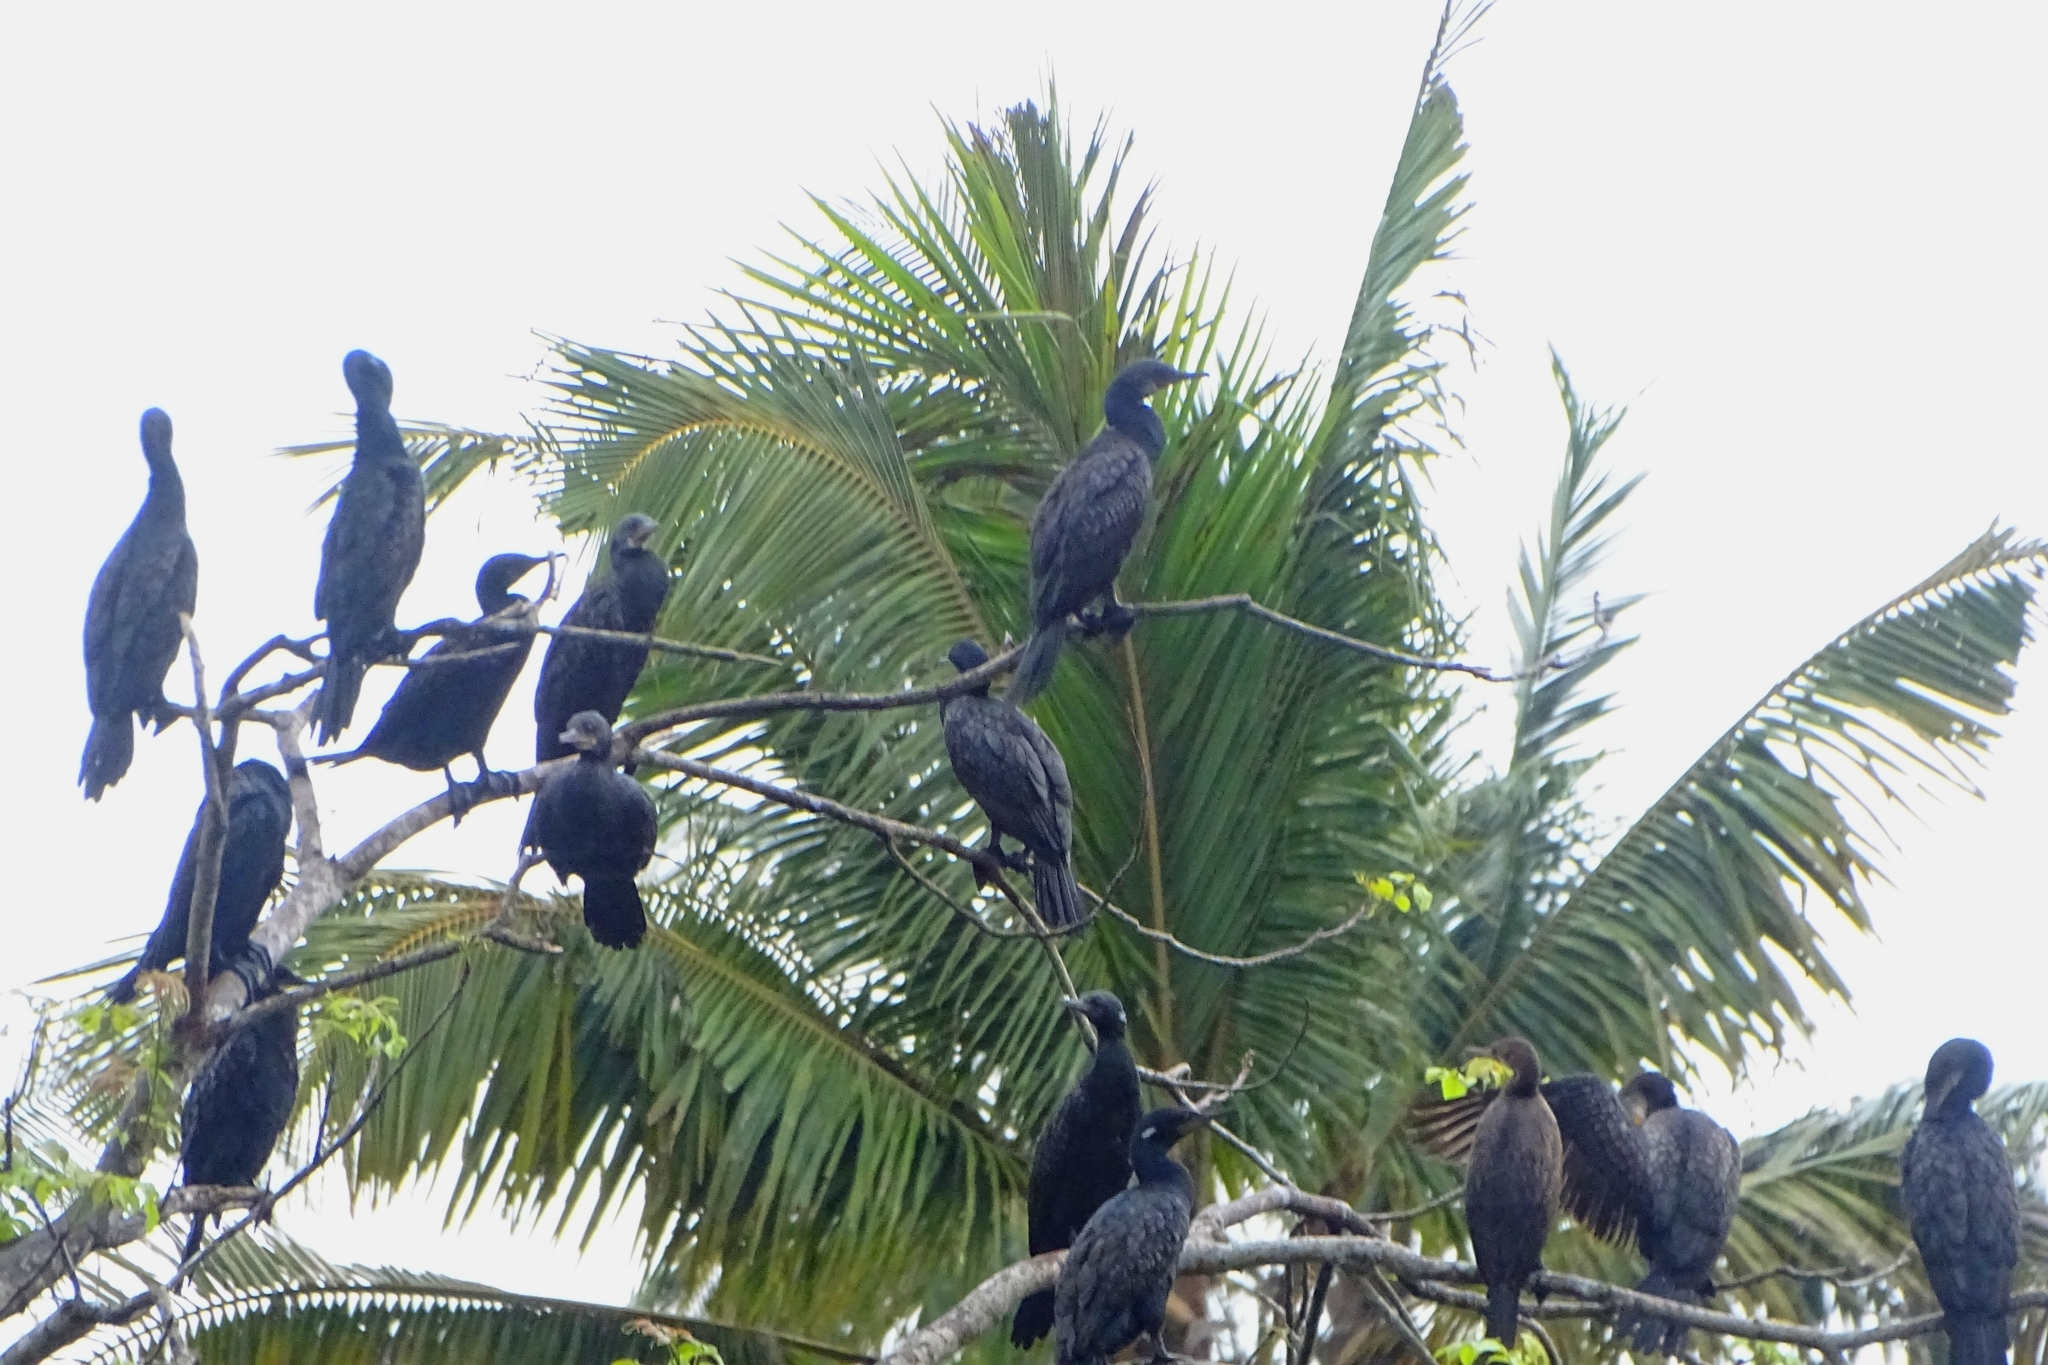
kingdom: Animalia
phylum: Chordata
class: Aves
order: Suliformes
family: Phalacrocoracidae
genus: Phalacrocorax
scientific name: Phalacrocorax fuscicollis
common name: Indian cormorant
